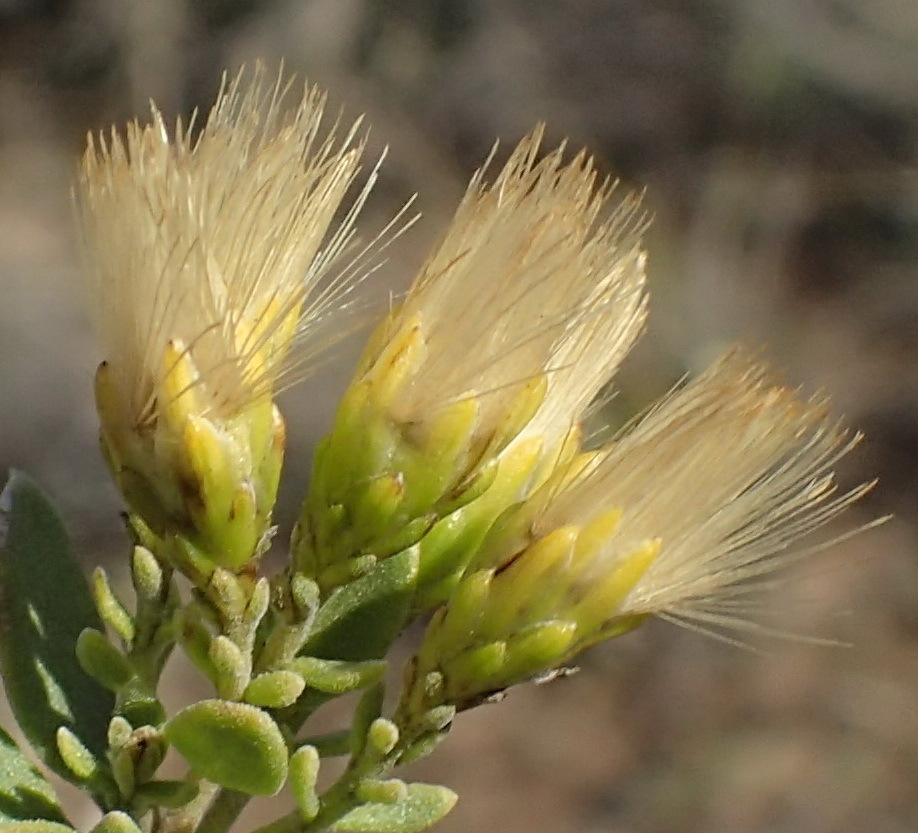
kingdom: Plantae
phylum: Tracheophyta
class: Magnoliopsida
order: Asterales
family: Asteraceae
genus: Pteronia
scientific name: Pteronia divaricata
